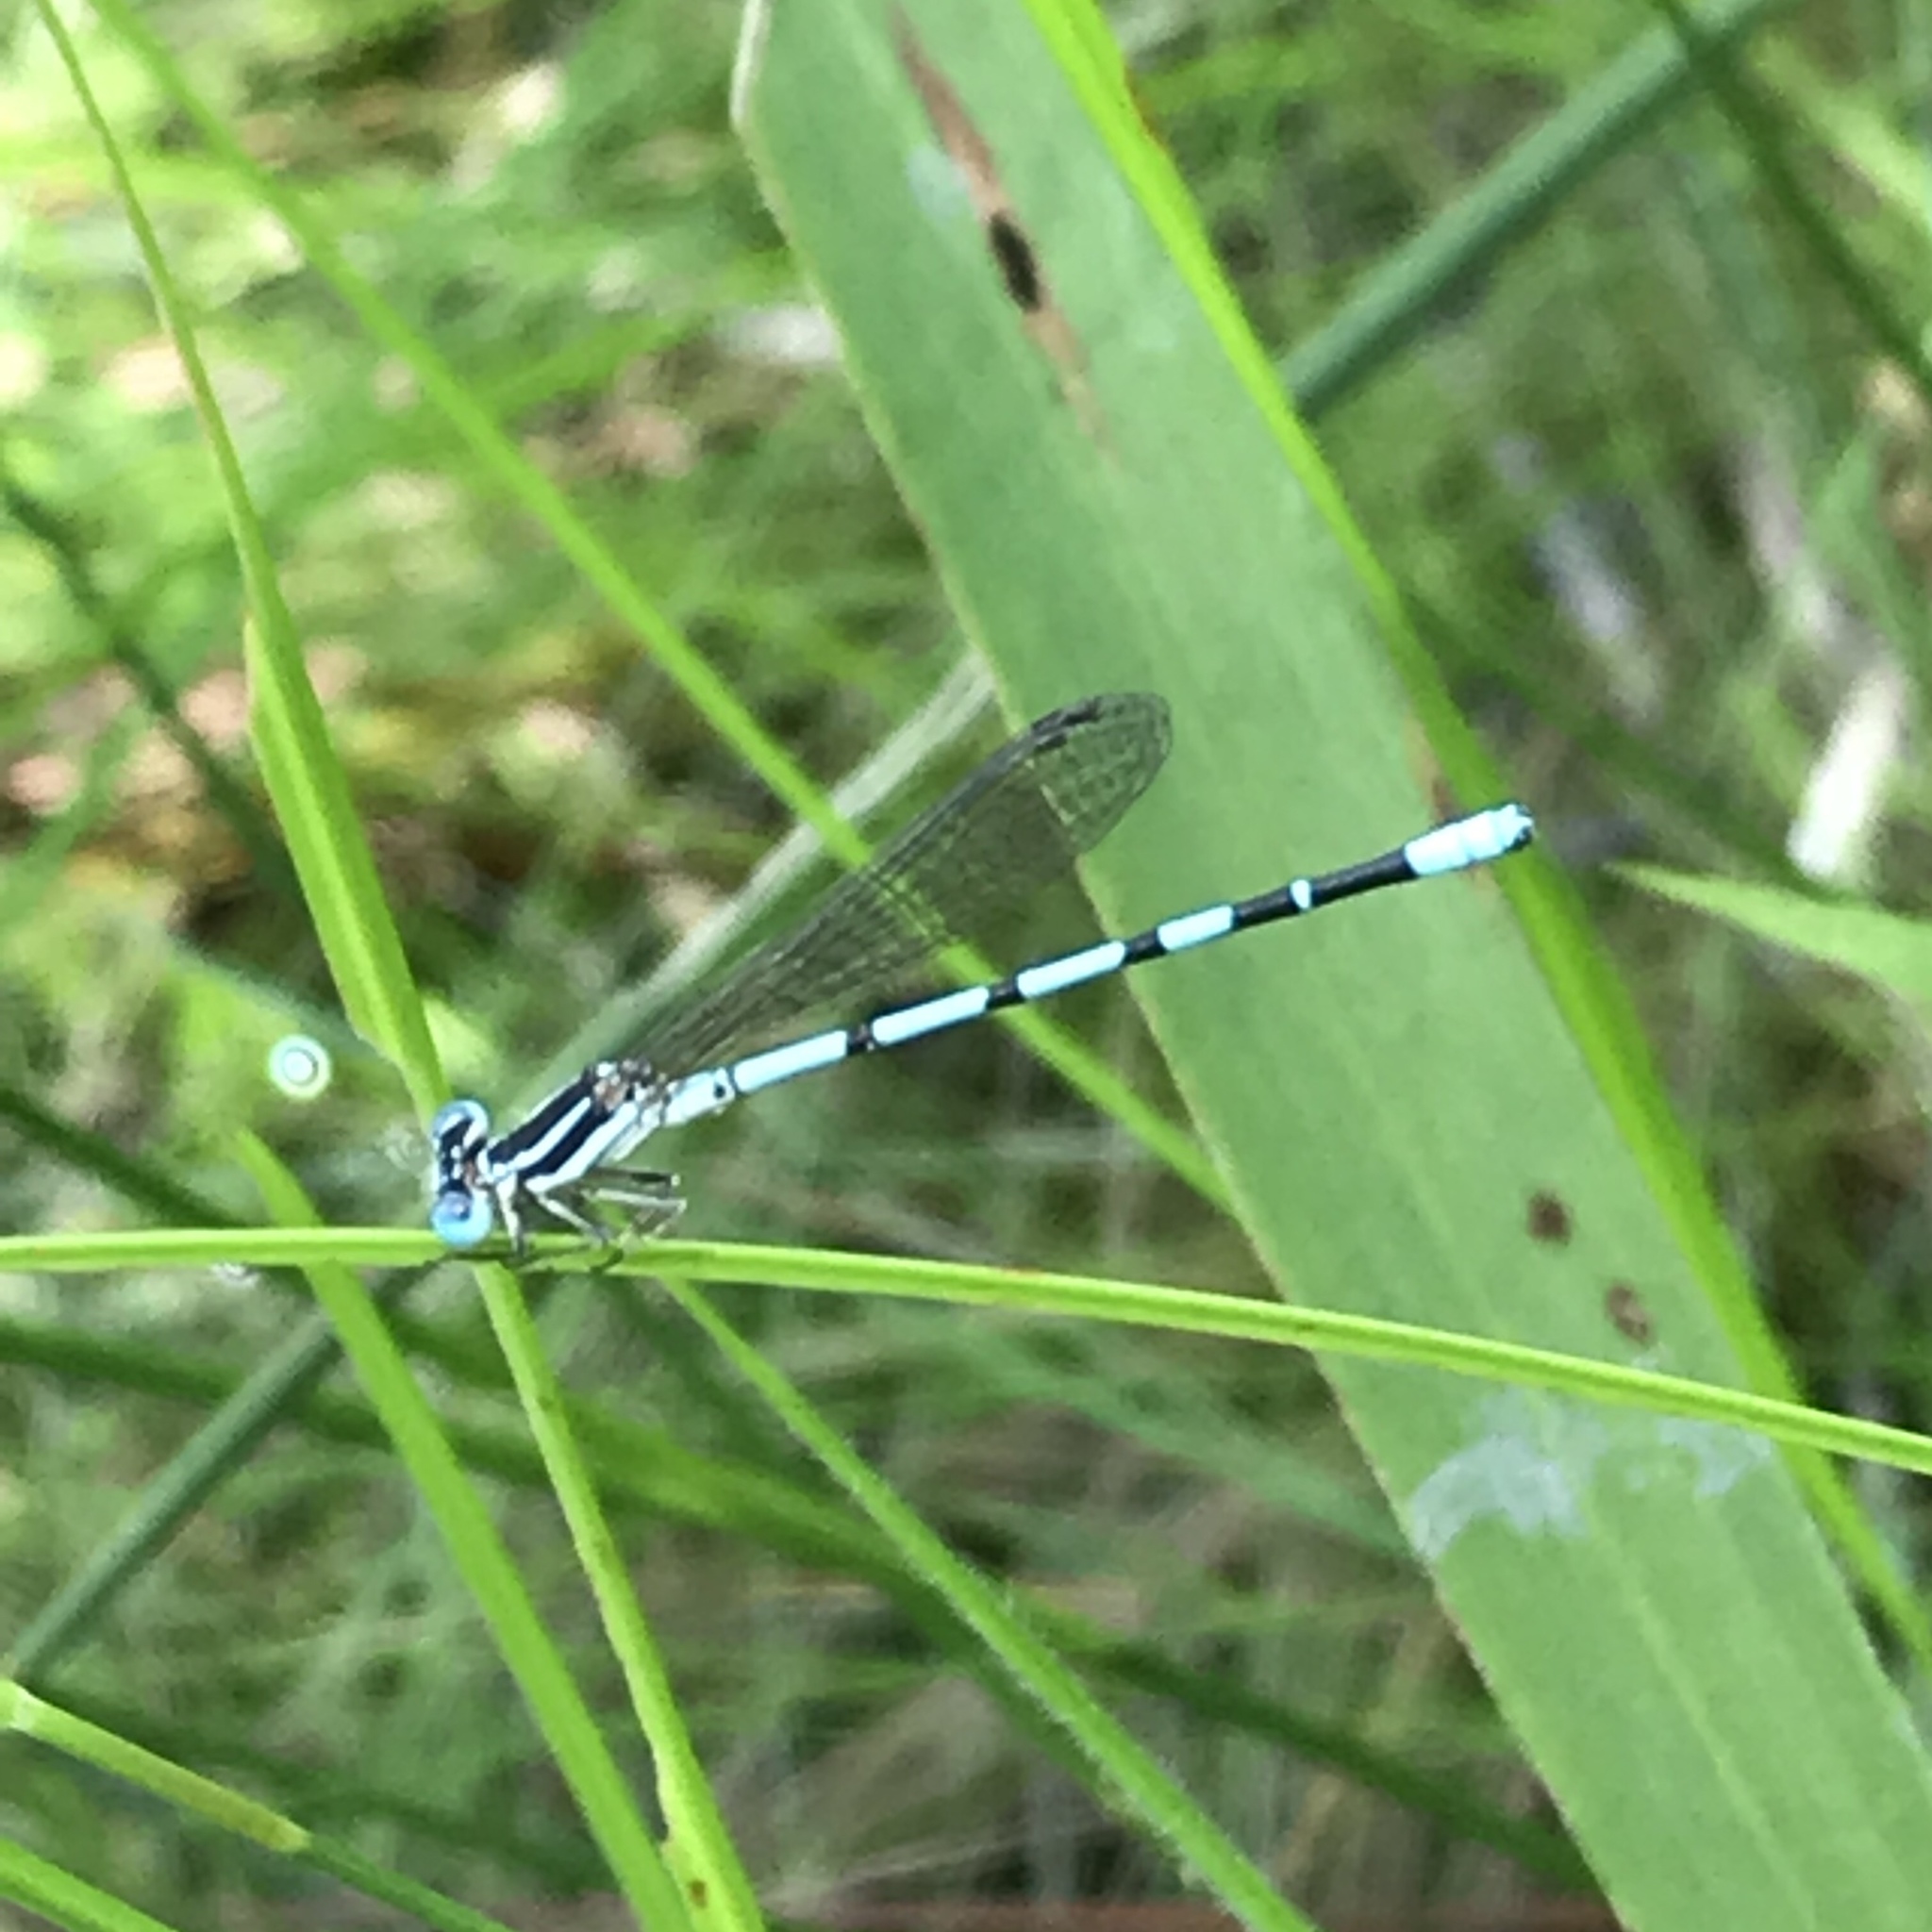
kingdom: Animalia
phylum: Arthropoda
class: Insecta
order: Odonata
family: Coenagrionidae
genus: Argia
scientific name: Argia bipunctulata
